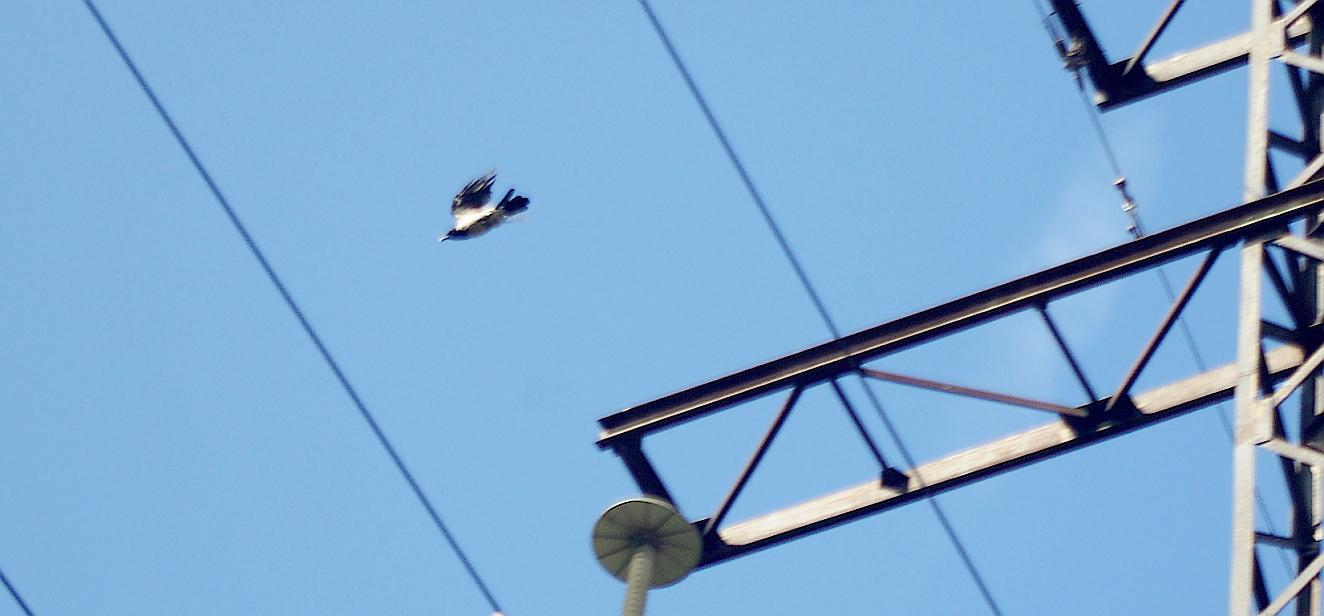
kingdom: Animalia
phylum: Chordata
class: Aves
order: Passeriformes
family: Corvidae
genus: Corvus
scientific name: Corvus cornix
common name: Hooded crow
